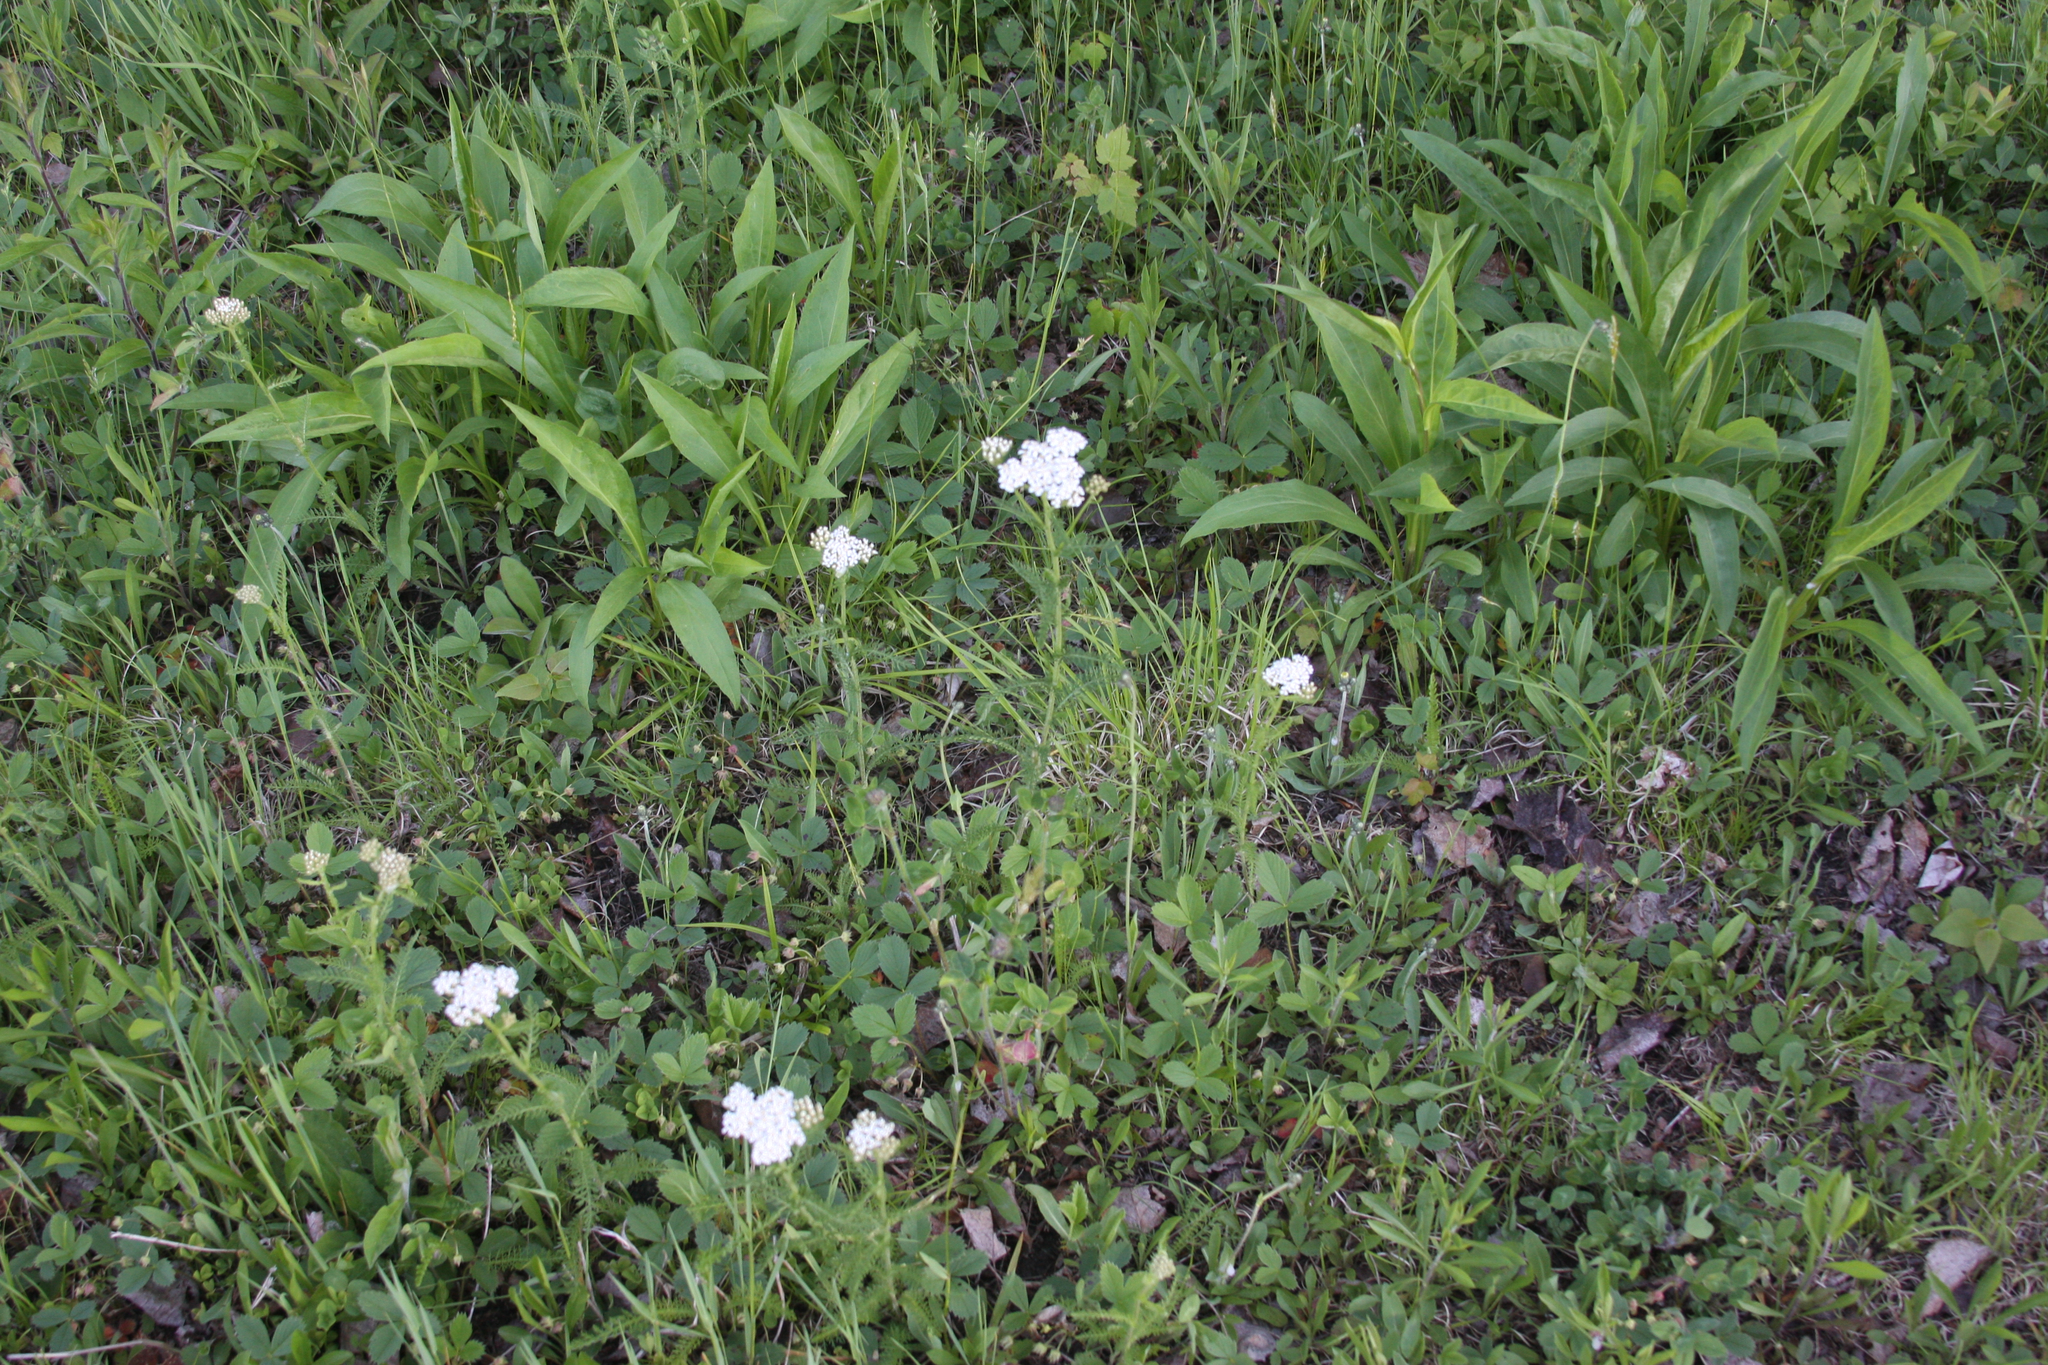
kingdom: Plantae
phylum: Tracheophyta
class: Magnoliopsida
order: Asterales
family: Asteraceae
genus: Achillea
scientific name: Achillea millefolium
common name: Yarrow
